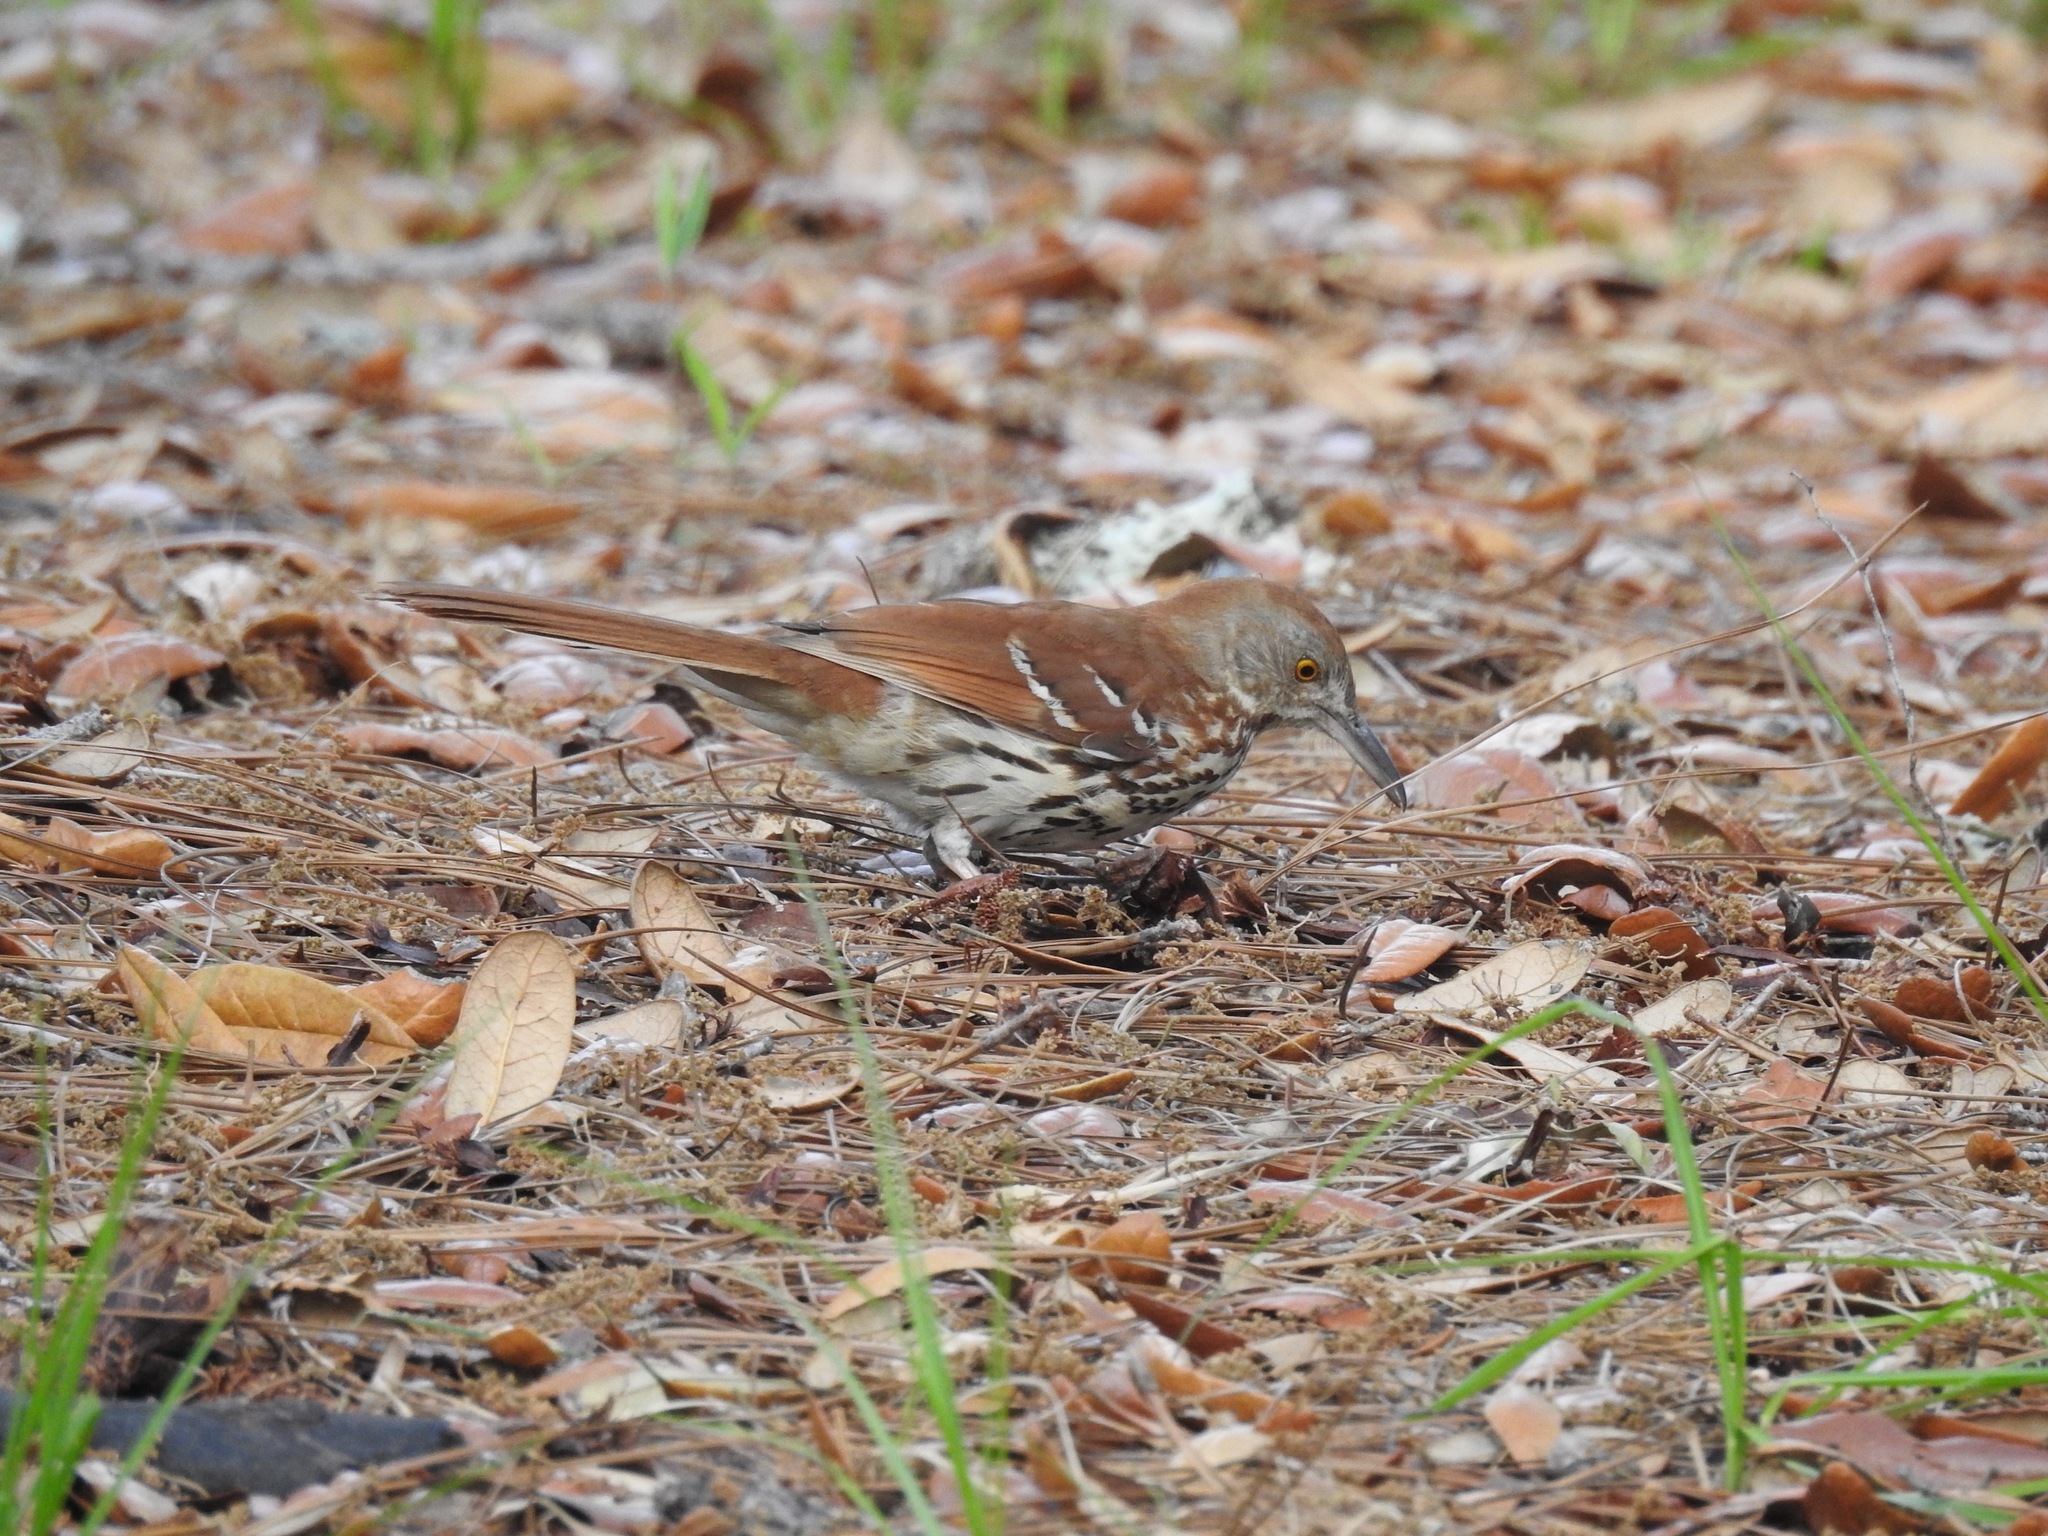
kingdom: Animalia
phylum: Chordata
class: Aves
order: Passeriformes
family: Mimidae
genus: Toxostoma
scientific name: Toxostoma rufum
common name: Brown thrasher
